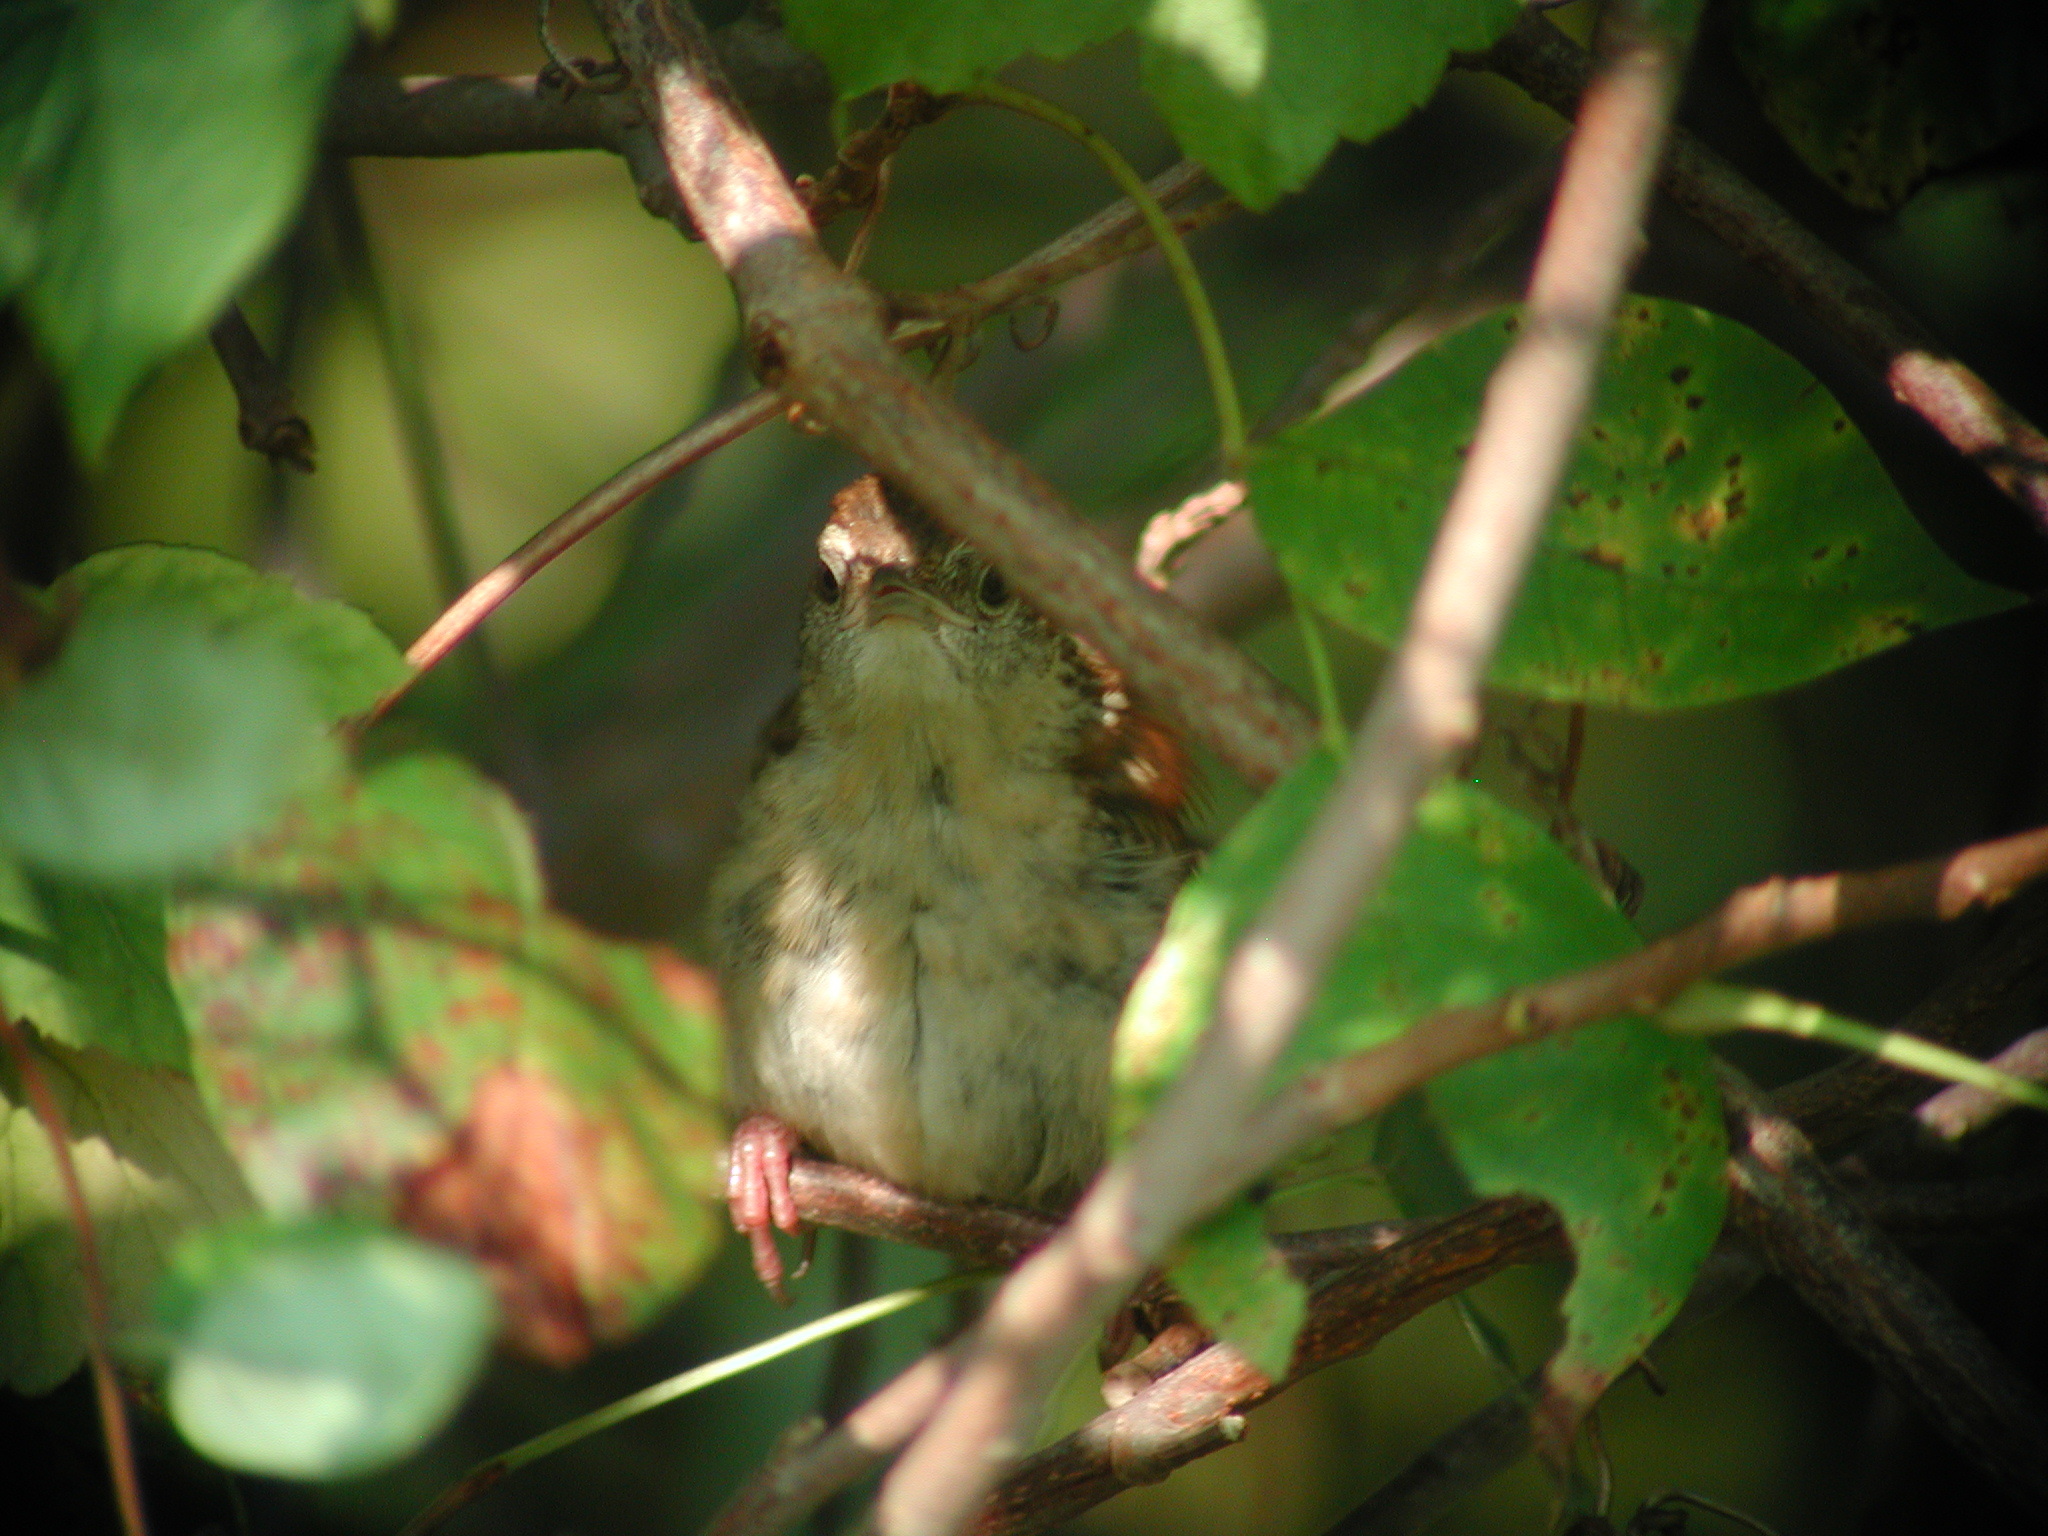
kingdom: Animalia
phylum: Chordata
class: Aves
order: Passeriformes
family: Troglodytidae
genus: Thryothorus
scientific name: Thryothorus ludovicianus
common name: Carolina wren
